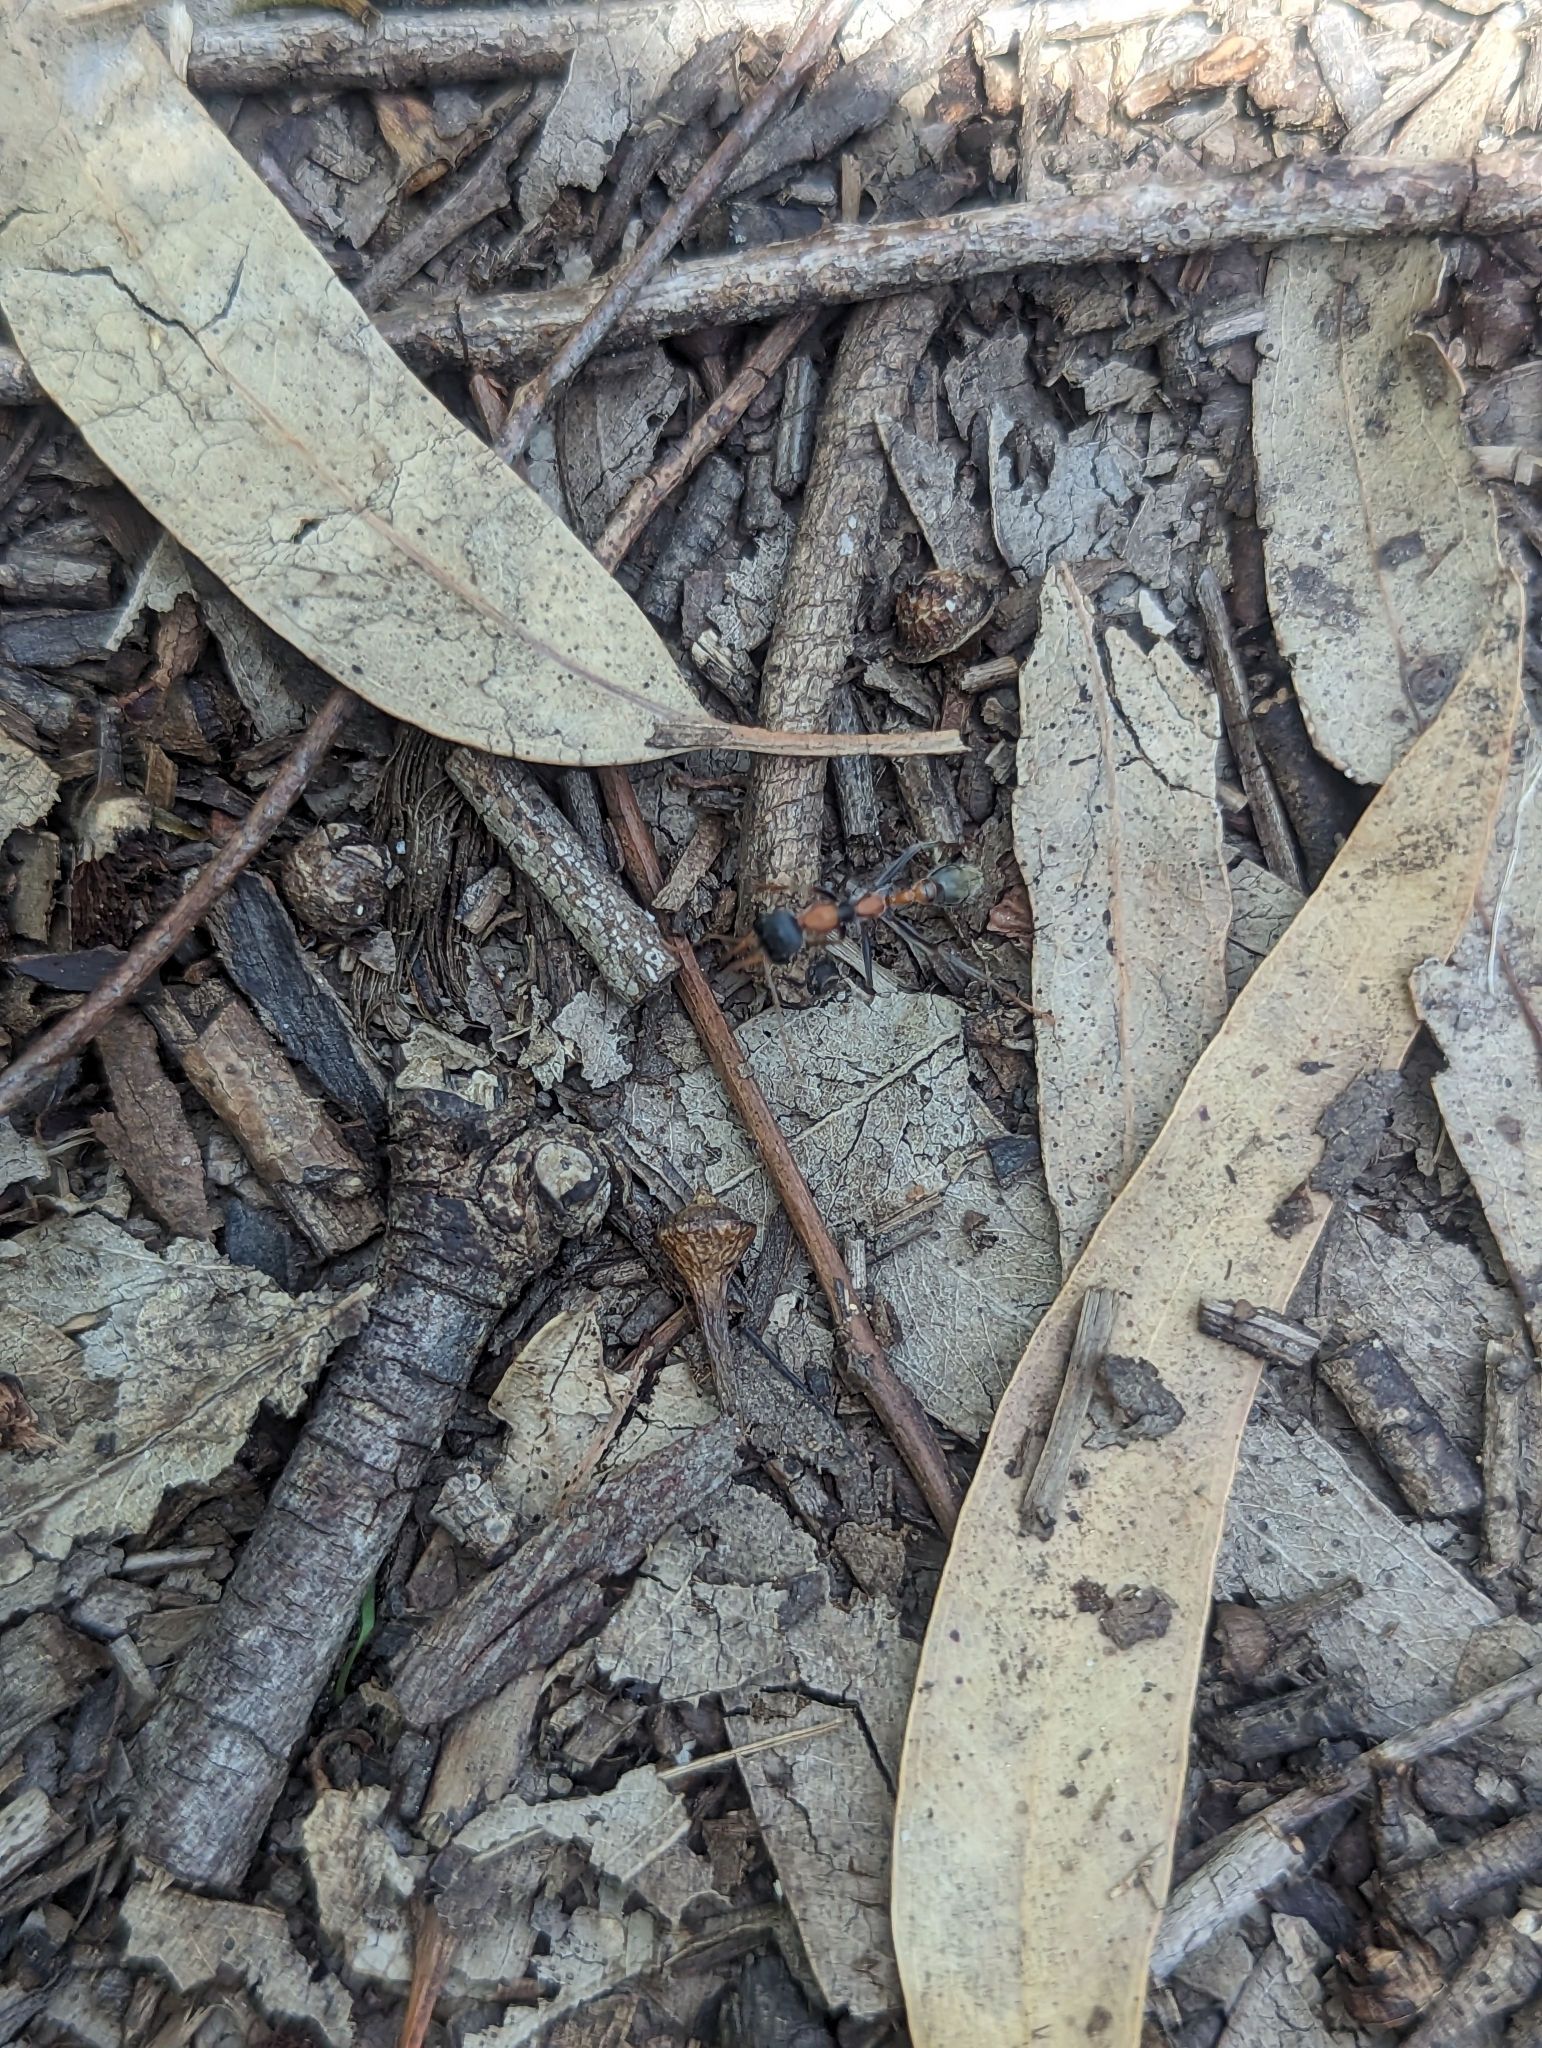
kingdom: Animalia
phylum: Arthropoda
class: Insecta
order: Hymenoptera
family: Formicidae
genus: Myrmecia
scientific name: Myrmecia nigrocincta
